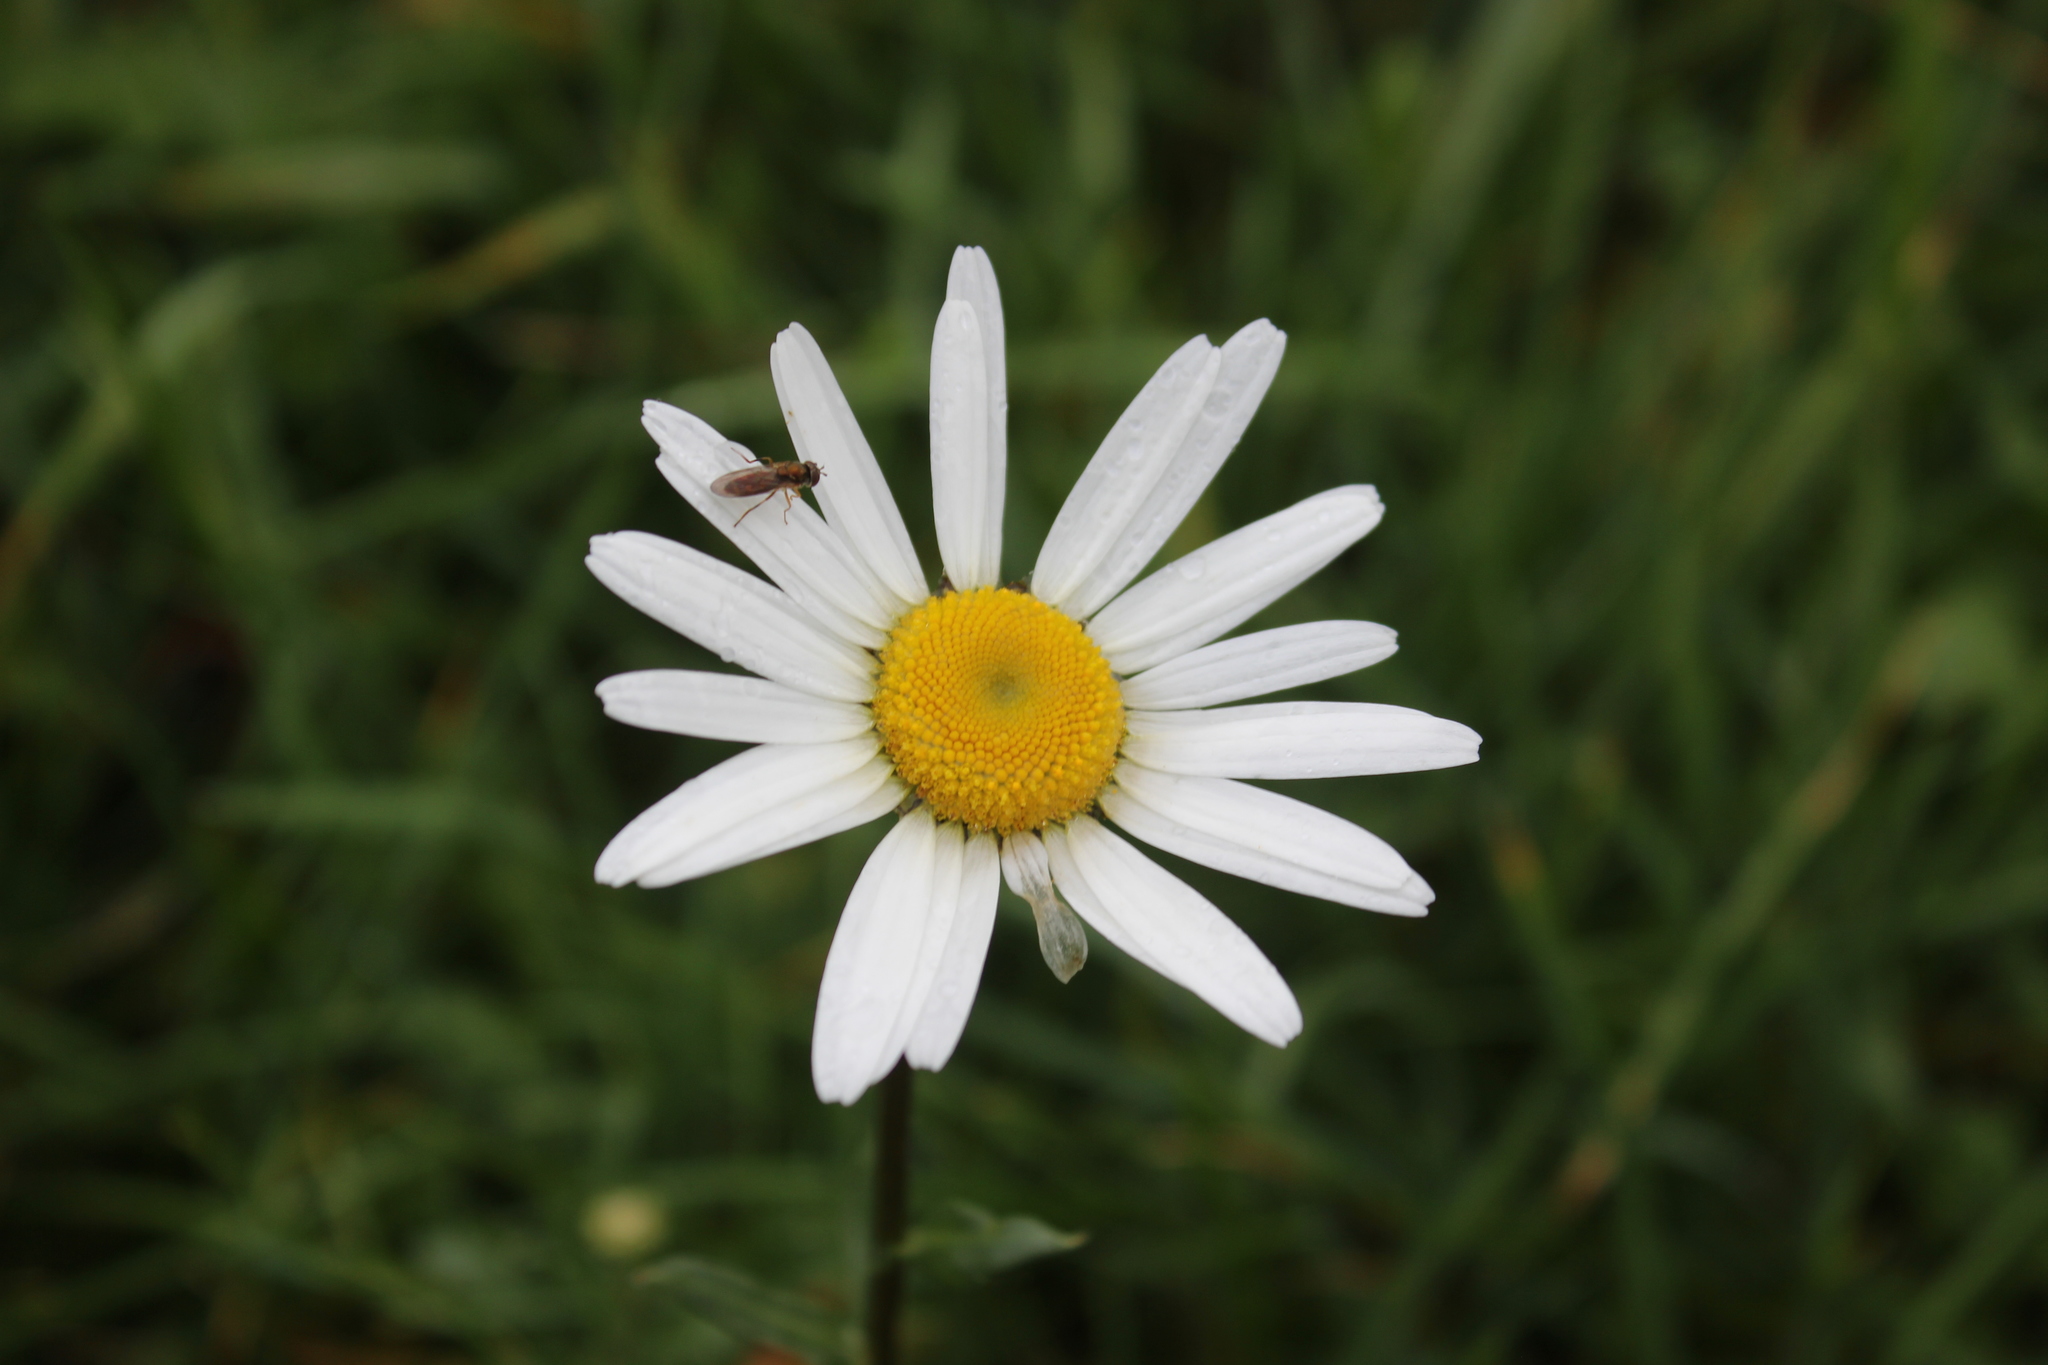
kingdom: Plantae
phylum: Tracheophyta
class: Magnoliopsida
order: Asterales
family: Asteraceae
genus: Leucanthemum
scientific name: Leucanthemum vulgare
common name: Oxeye daisy
